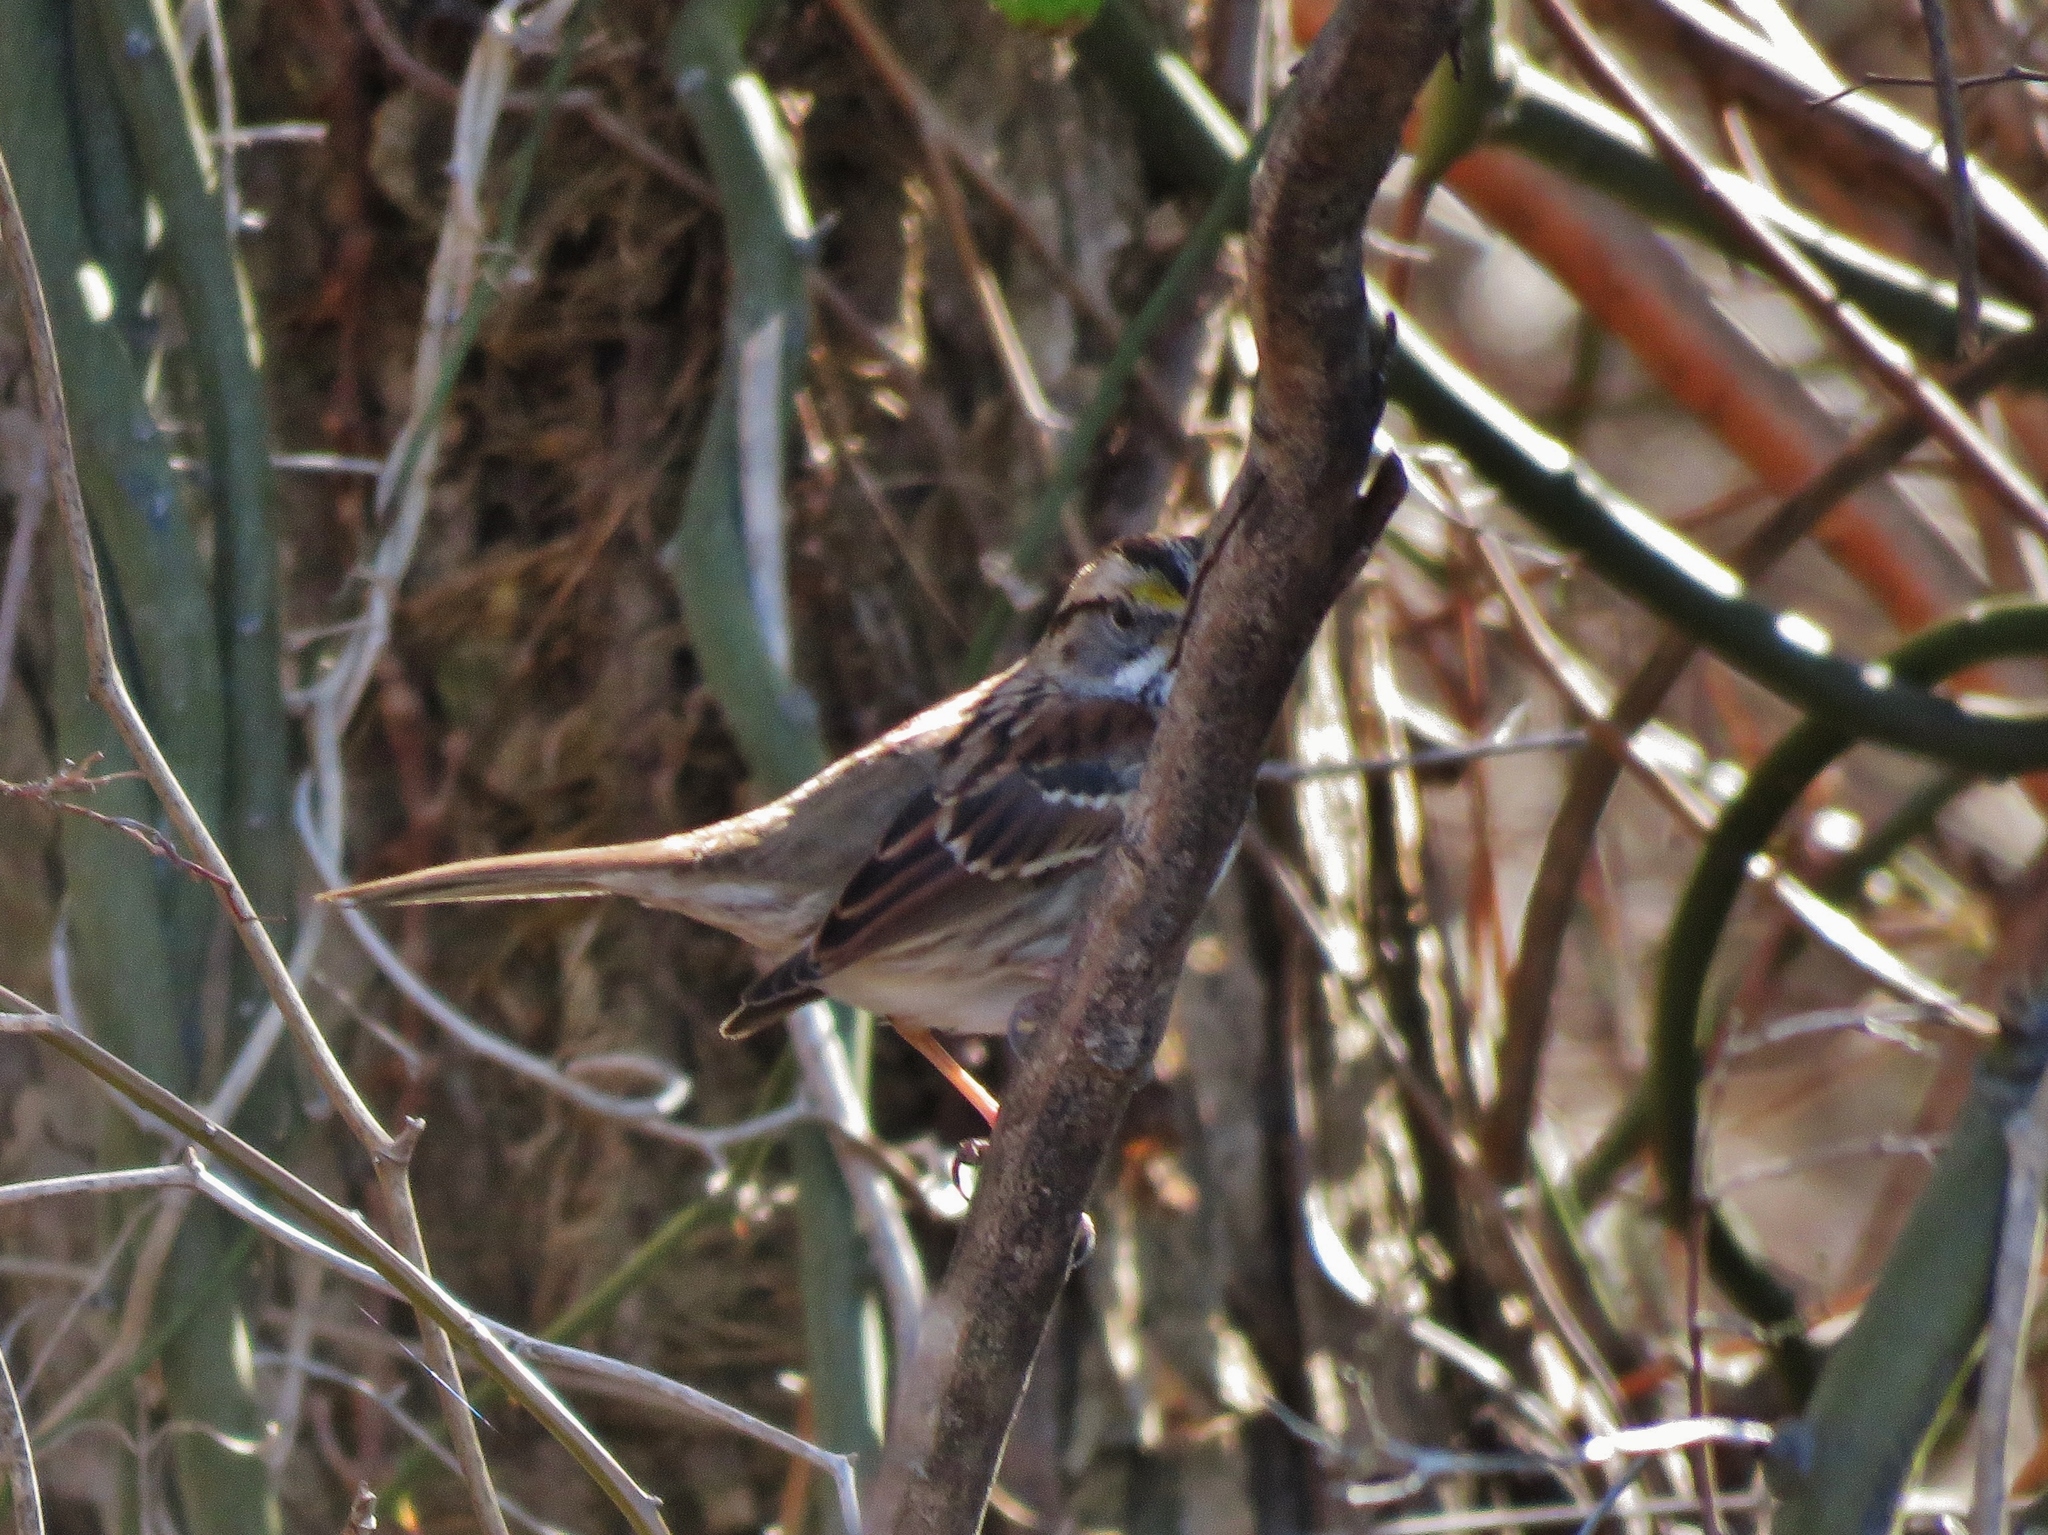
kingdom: Animalia
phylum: Chordata
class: Aves
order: Passeriformes
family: Passerellidae
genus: Zonotrichia
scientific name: Zonotrichia albicollis
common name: White-throated sparrow
